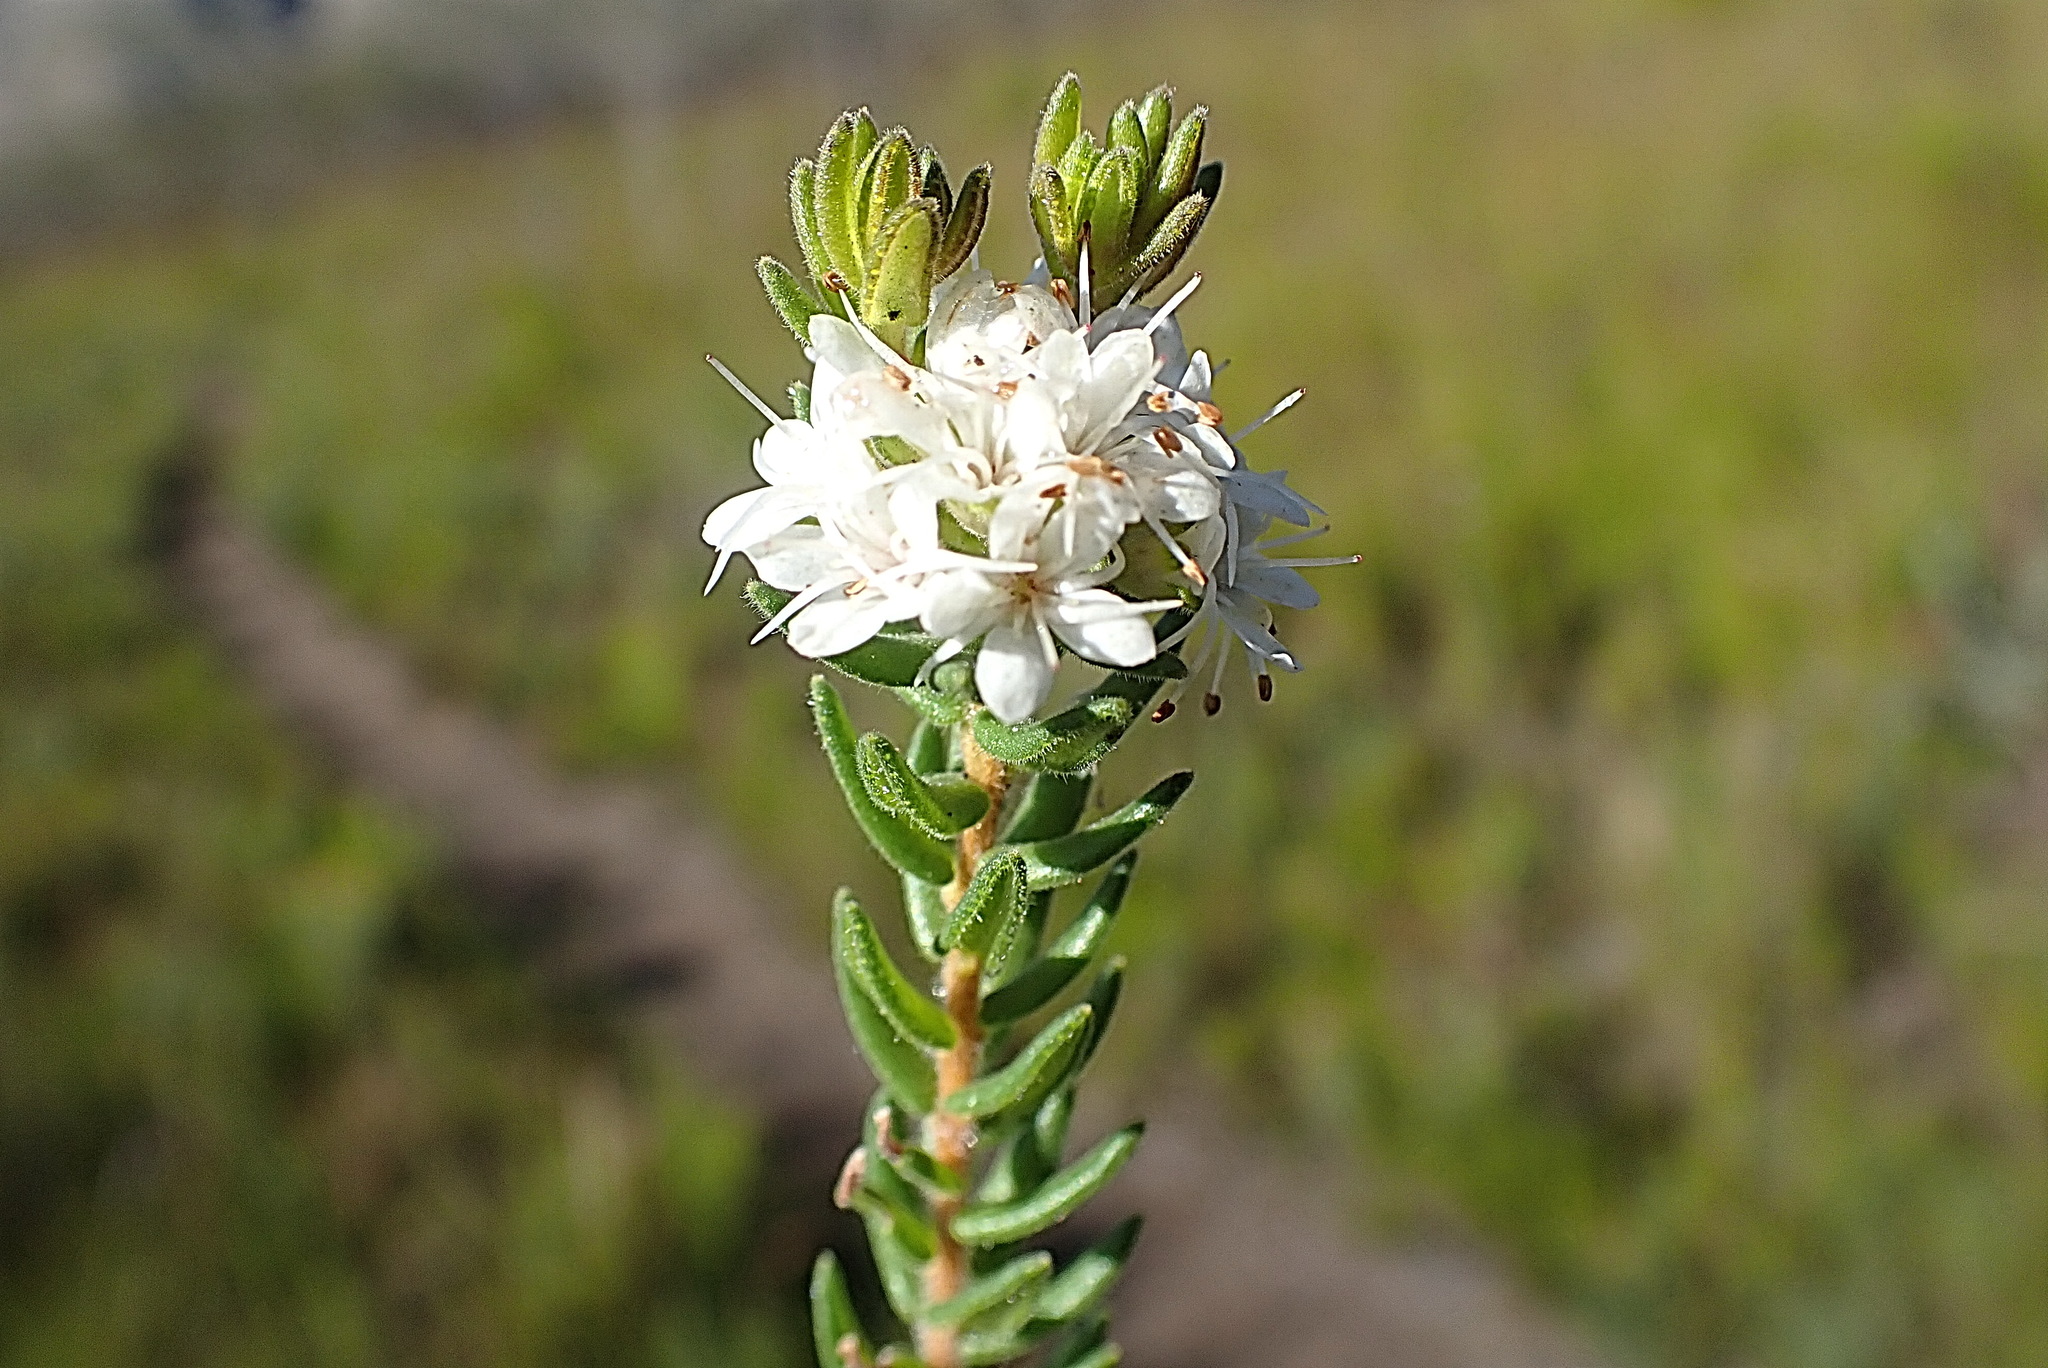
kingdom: Plantae
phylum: Tracheophyta
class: Magnoliopsida
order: Sapindales
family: Rutaceae
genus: Agathosma
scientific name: Agathosma mundtii
